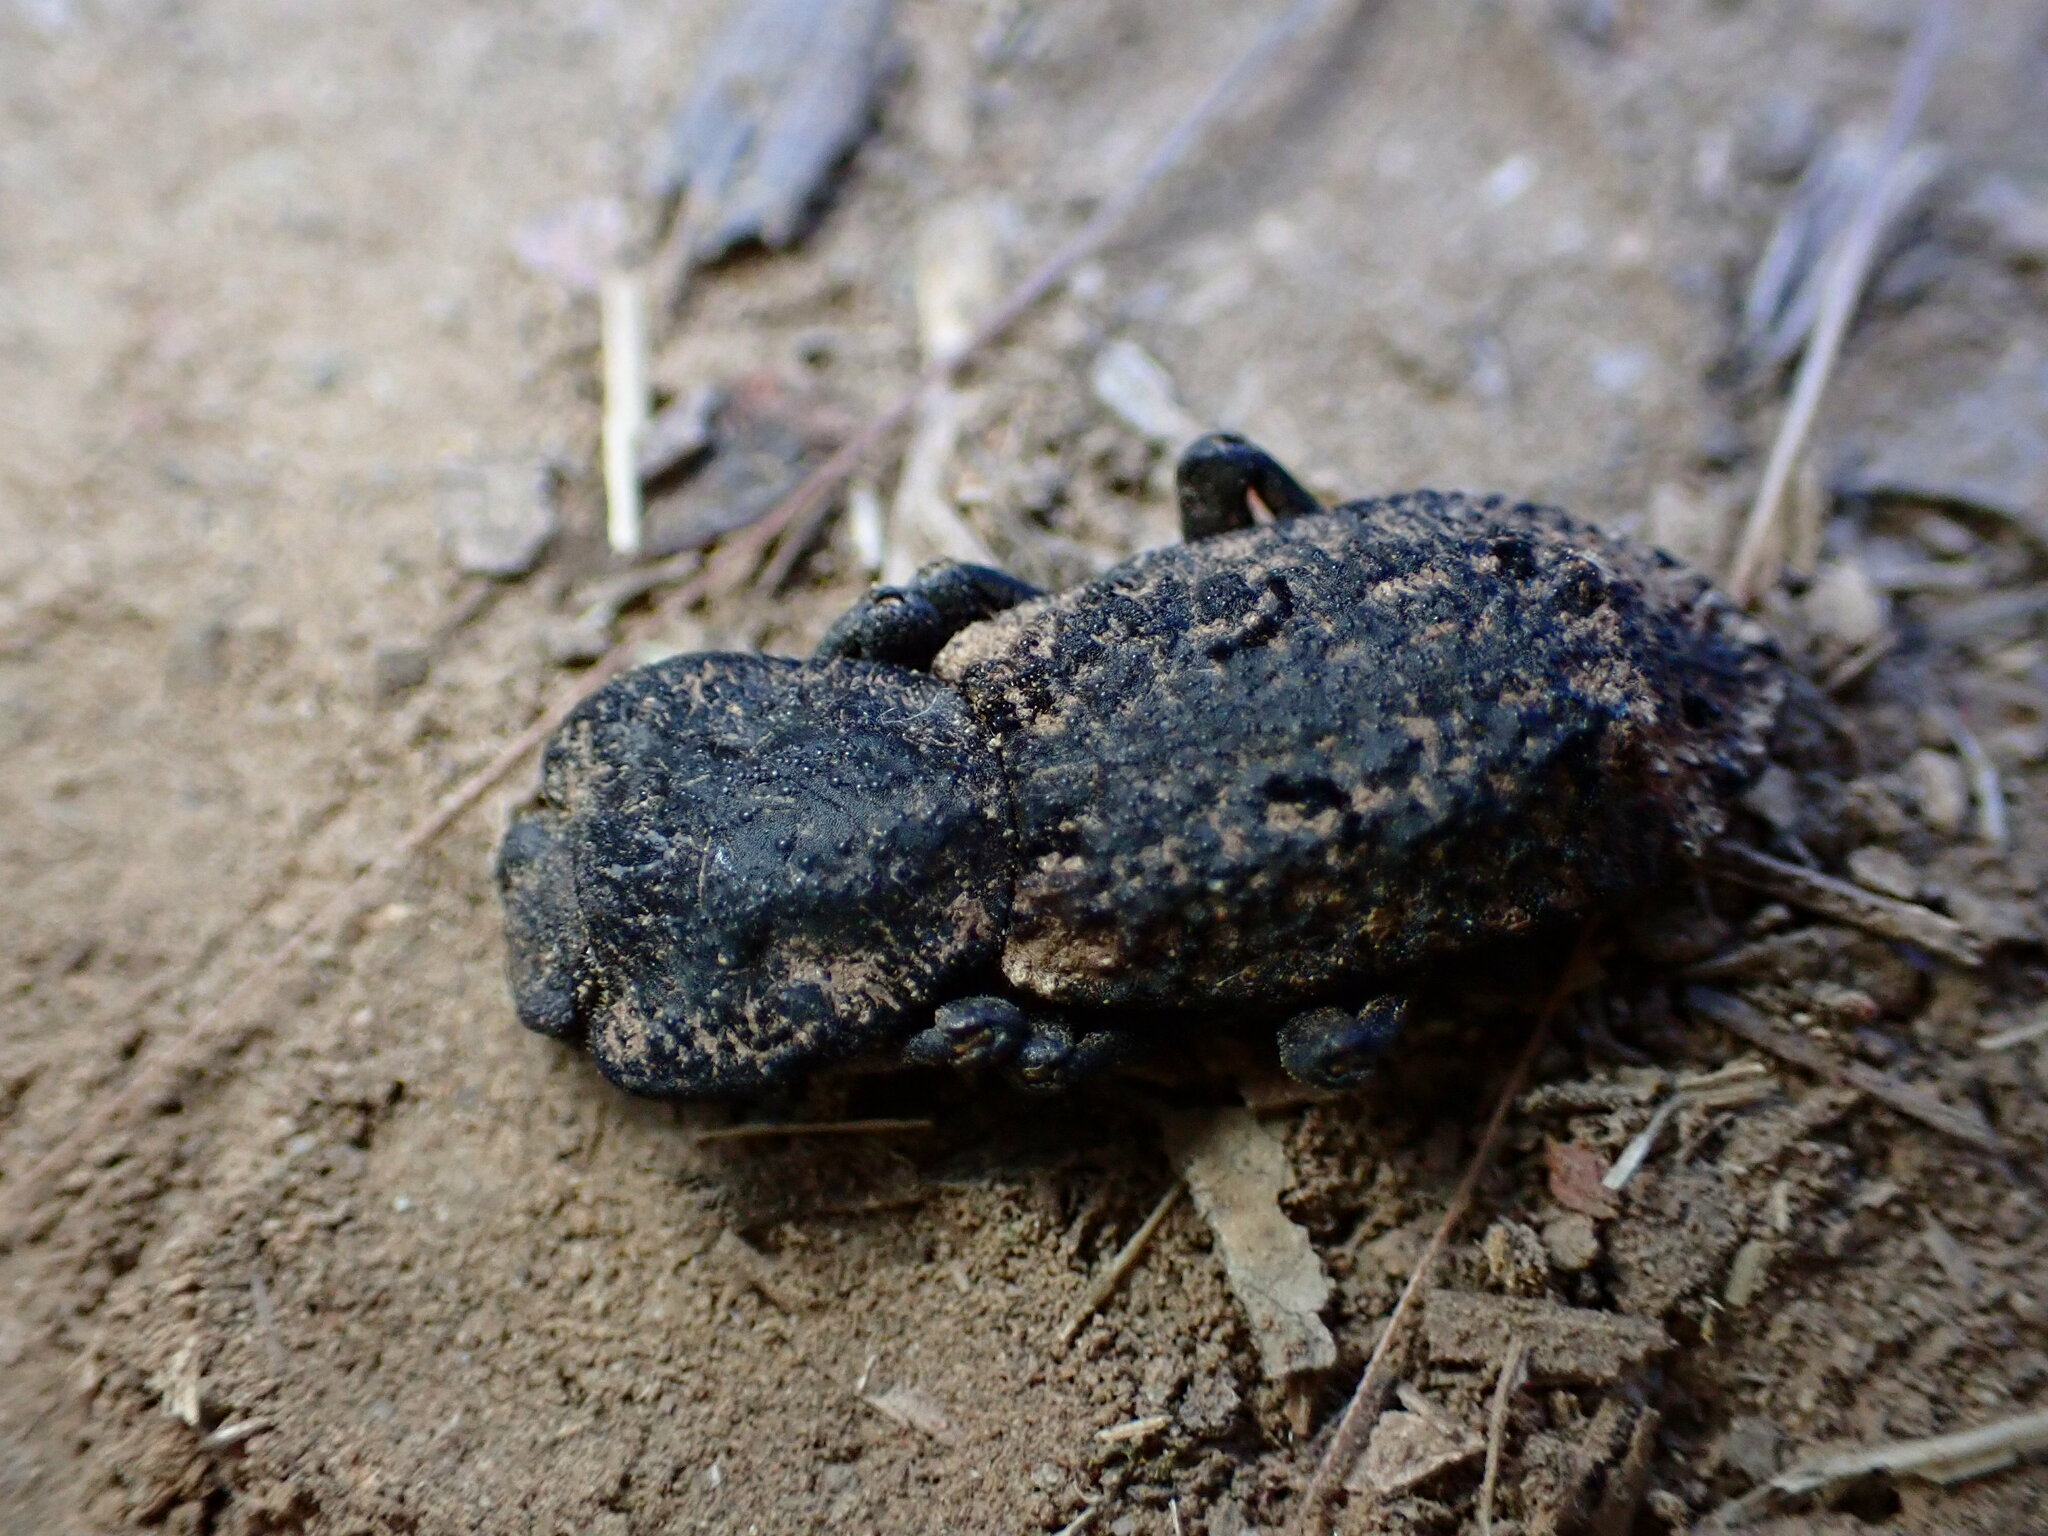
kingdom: Animalia
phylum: Arthropoda
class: Insecta
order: Coleoptera
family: Zopheridae
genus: Phloeodes
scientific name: Phloeodes diabolicus
